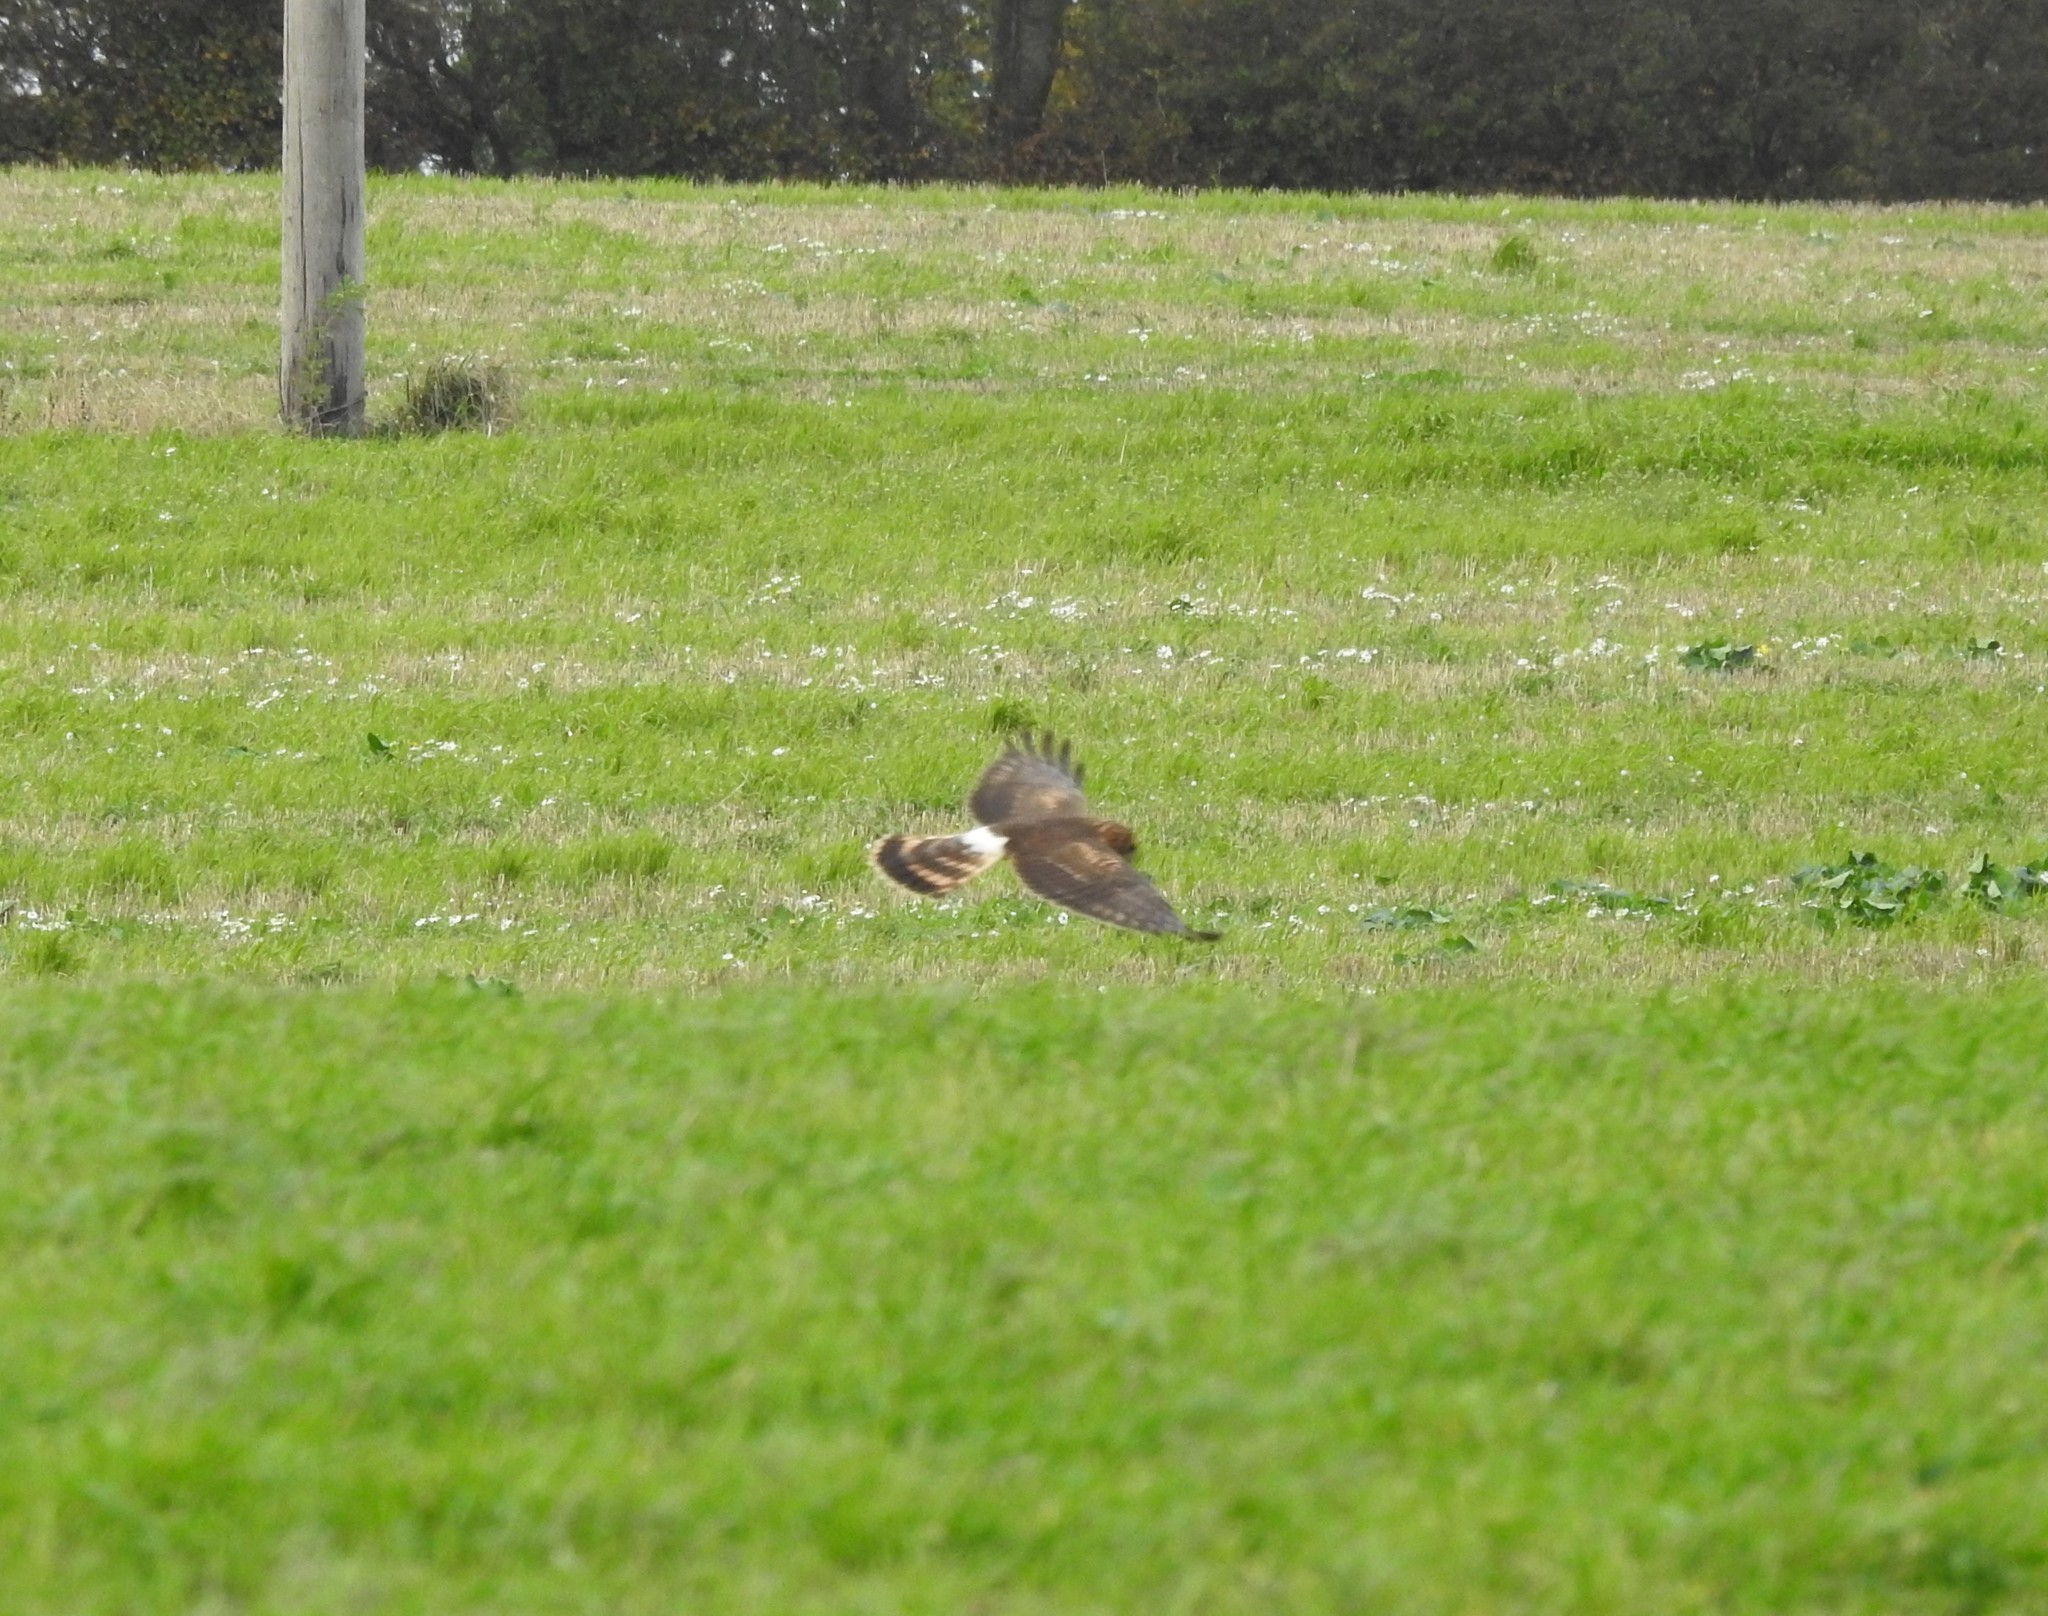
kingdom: Animalia
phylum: Chordata
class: Aves
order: Accipitriformes
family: Accipitridae
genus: Circus
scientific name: Circus cyaneus
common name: Hen harrier
